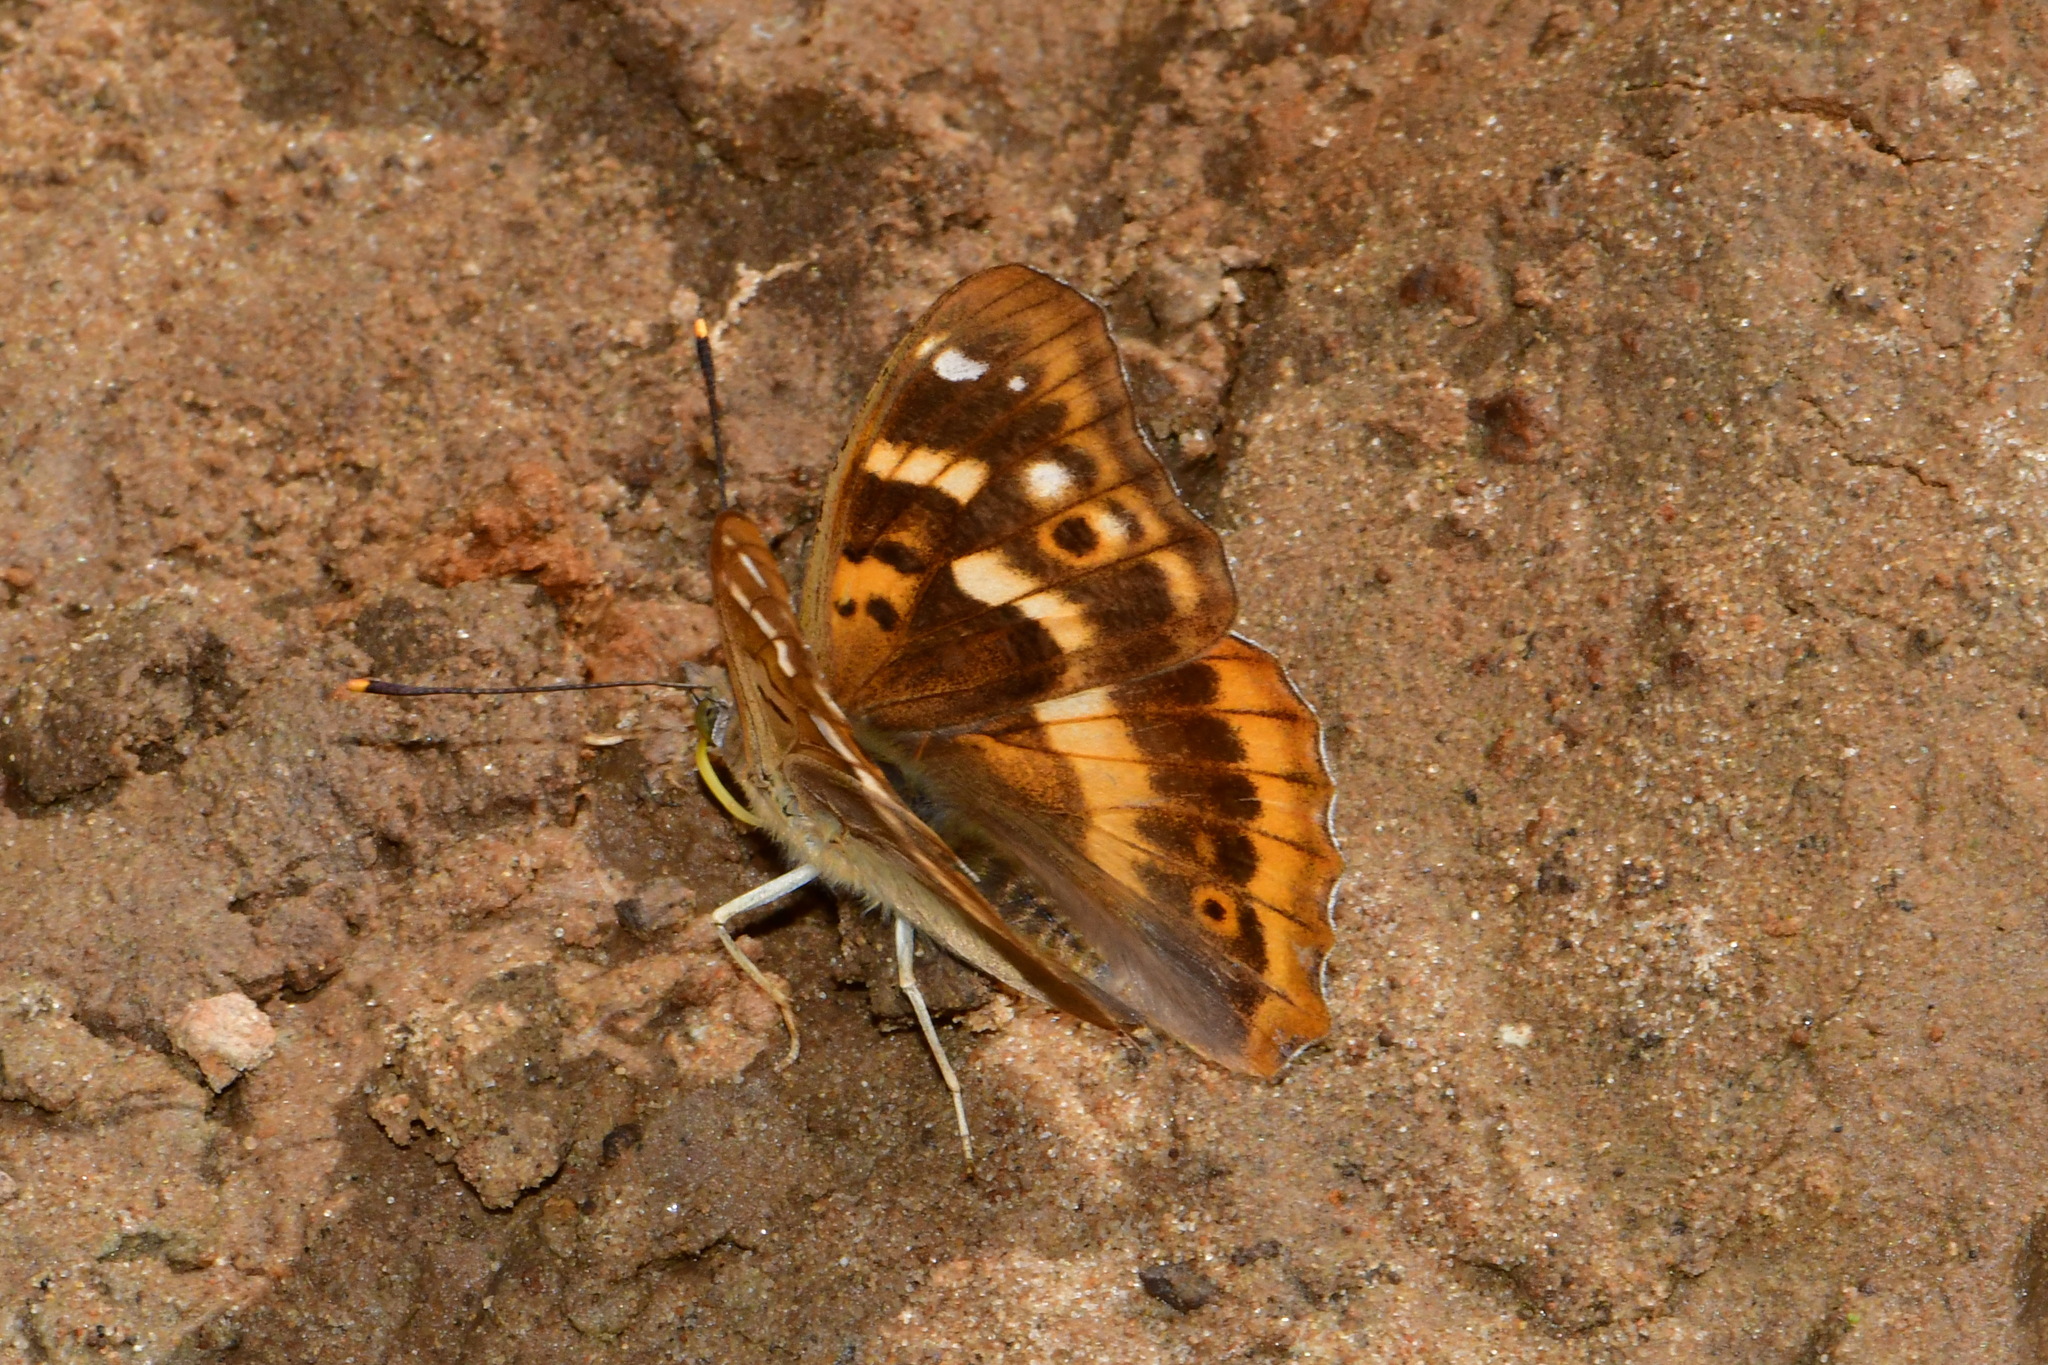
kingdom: Animalia
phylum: Arthropoda
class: Insecta
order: Lepidoptera
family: Nymphalidae
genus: Apatura
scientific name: Apatura ilia
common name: Lesser purple emperor
